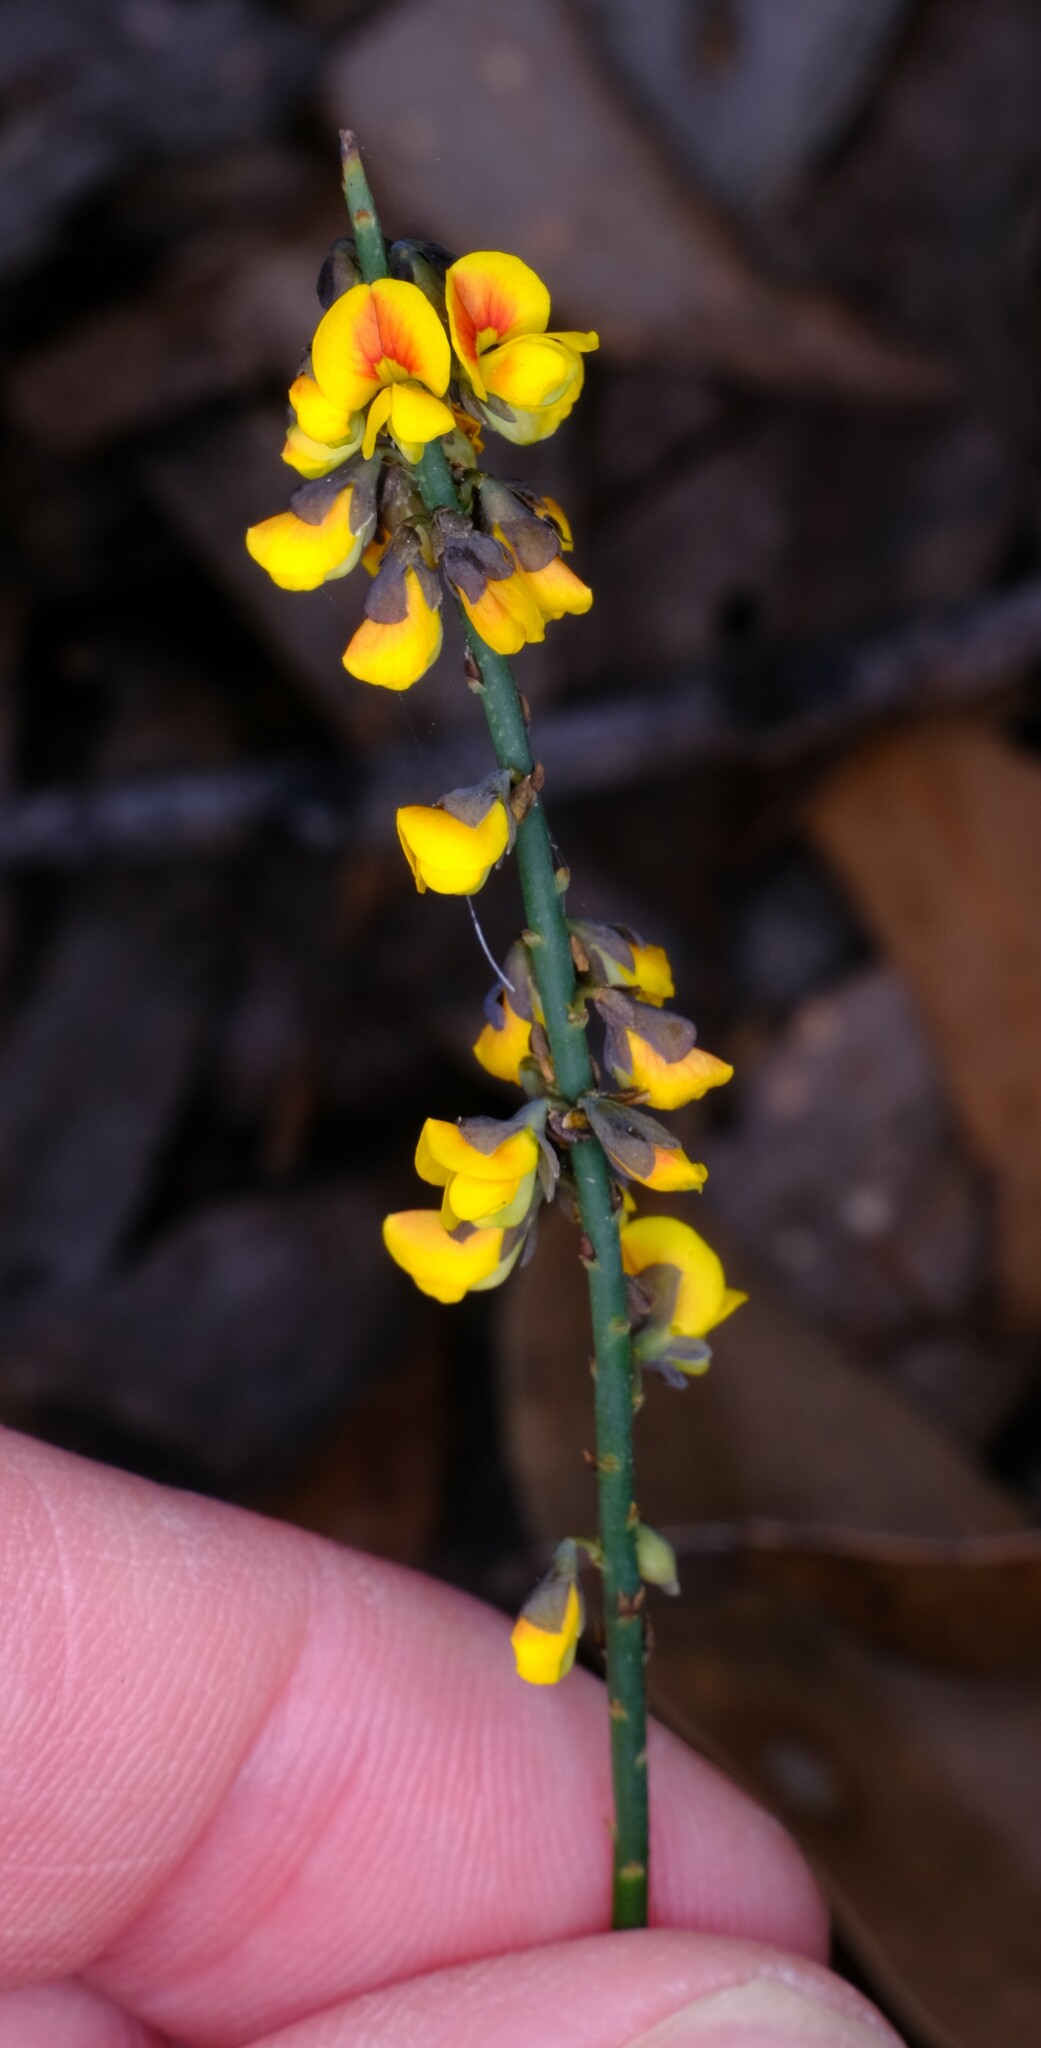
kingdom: Plantae
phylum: Tracheophyta
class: Magnoliopsida
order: Fabales
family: Fabaceae
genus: Sphaerolobium
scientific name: Sphaerolobium minus
